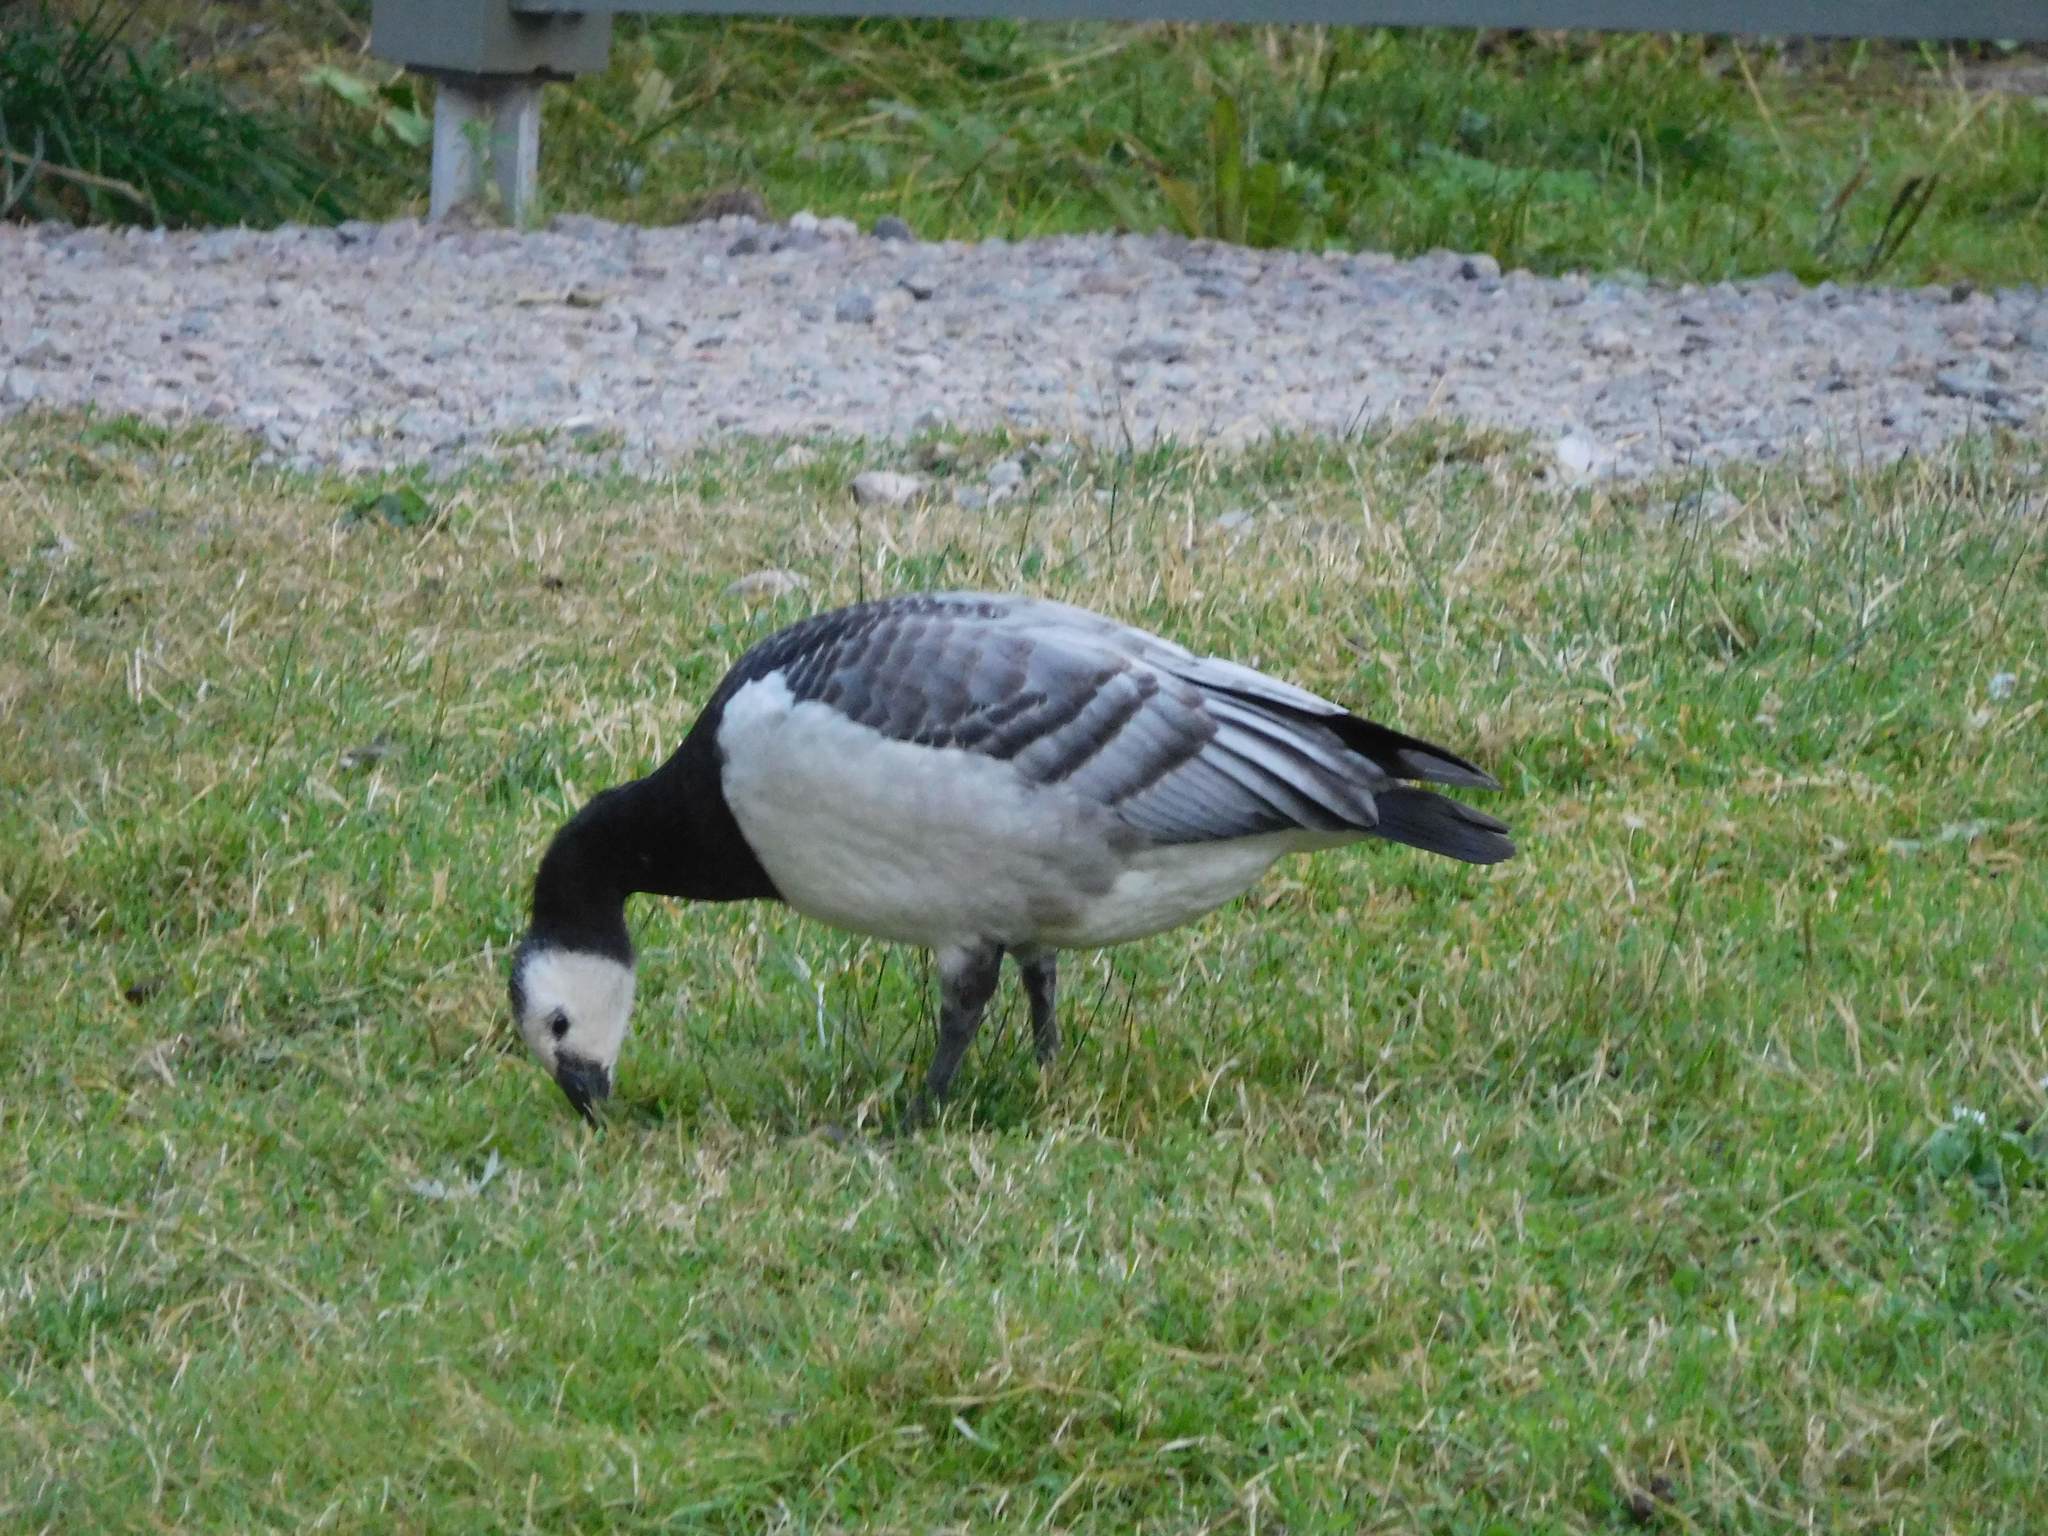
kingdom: Animalia
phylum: Chordata
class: Aves
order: Anseriformes
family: Anatidae
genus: Branta
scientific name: Branta leucopsis
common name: Barnacle goose
